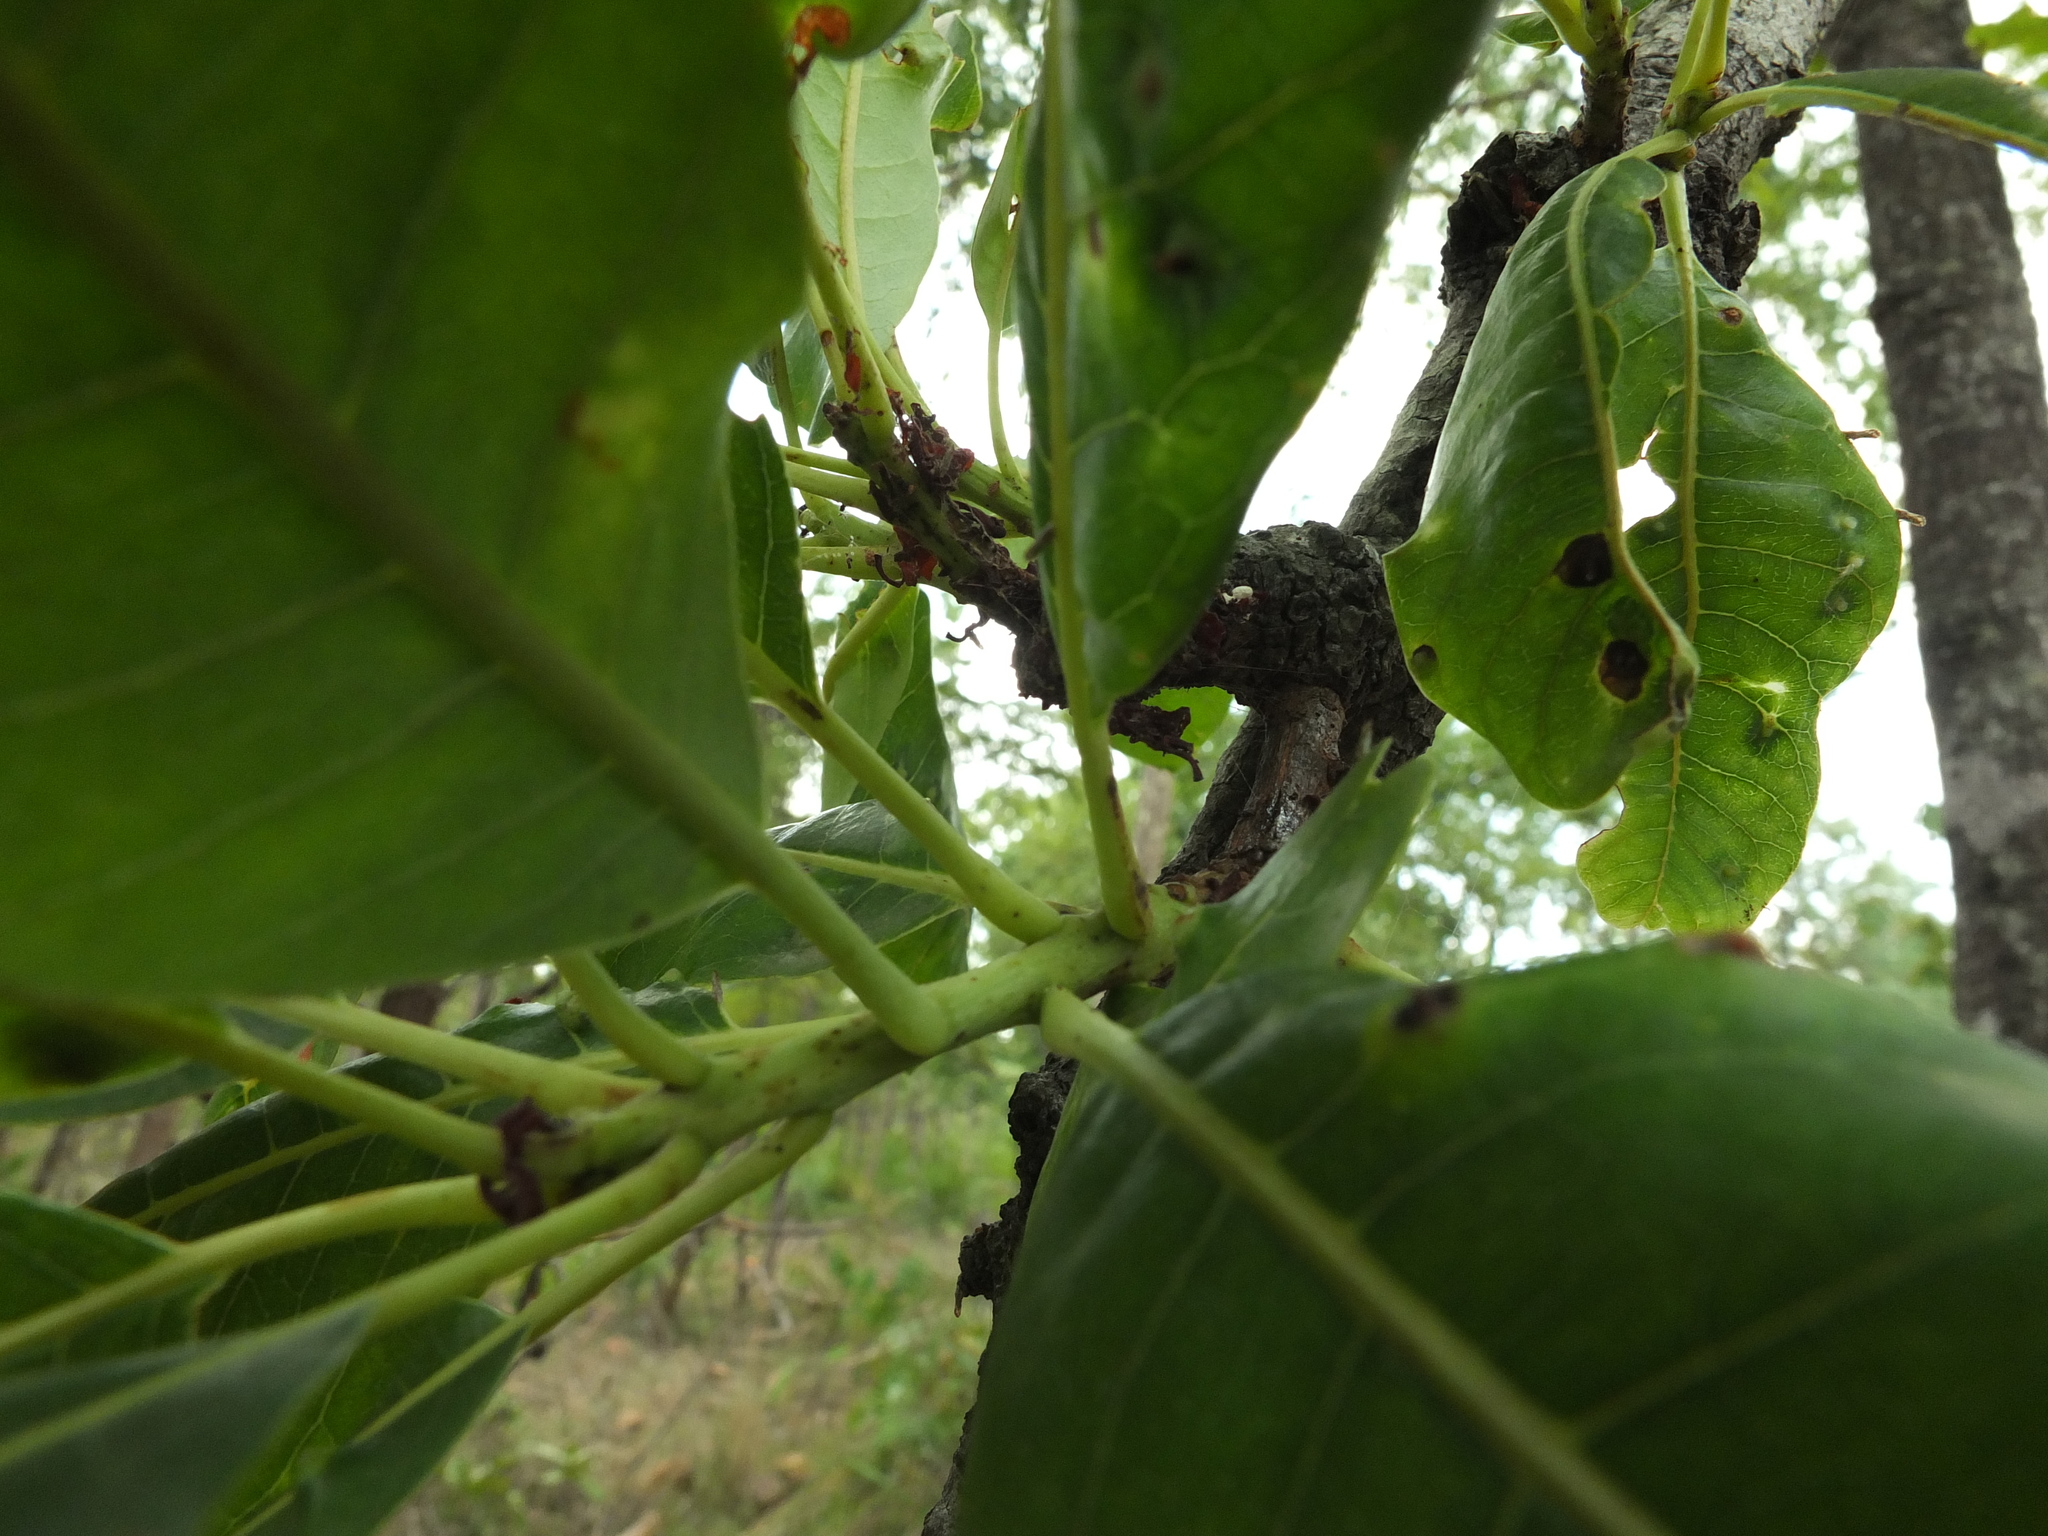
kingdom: Plantae
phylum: Tracheophyta
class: Magnoliopsida
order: Sapindales
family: Anacardiaceae
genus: Buchanania
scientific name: Buchanania axillaris
